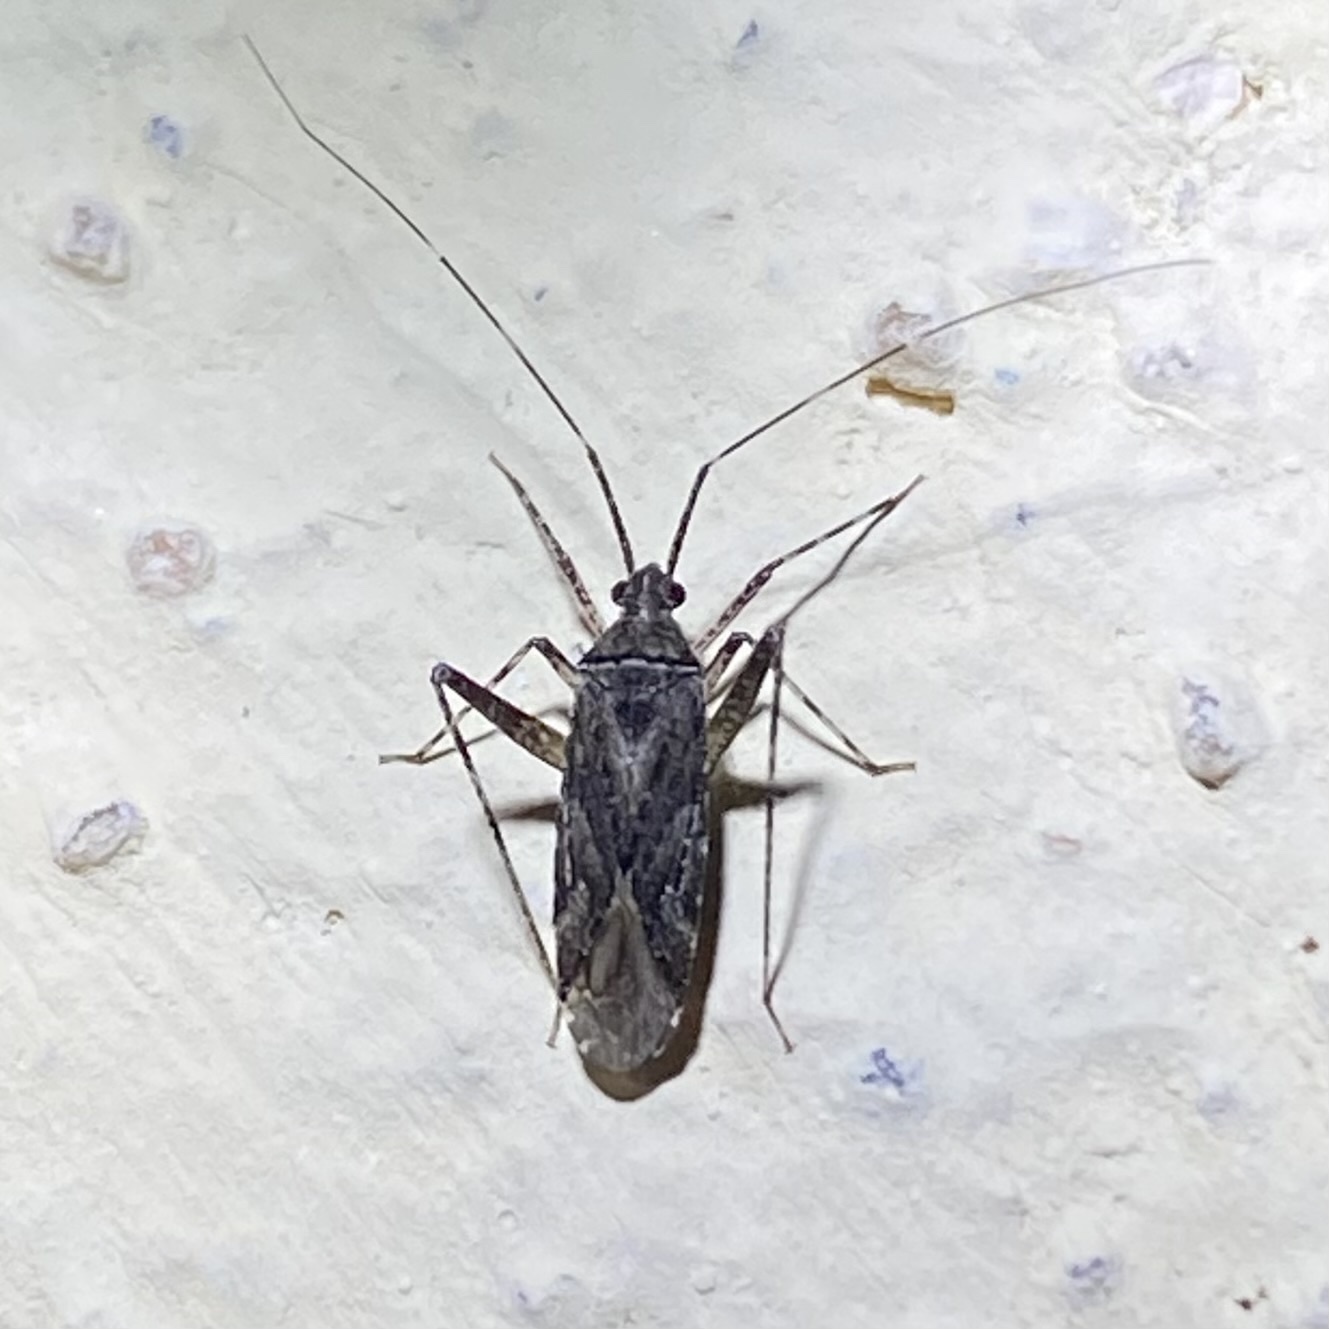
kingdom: Animalia
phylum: Arthropoda
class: Insecta
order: Hemiptera
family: Miridae
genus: Phytocoris
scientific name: Phytocoris
